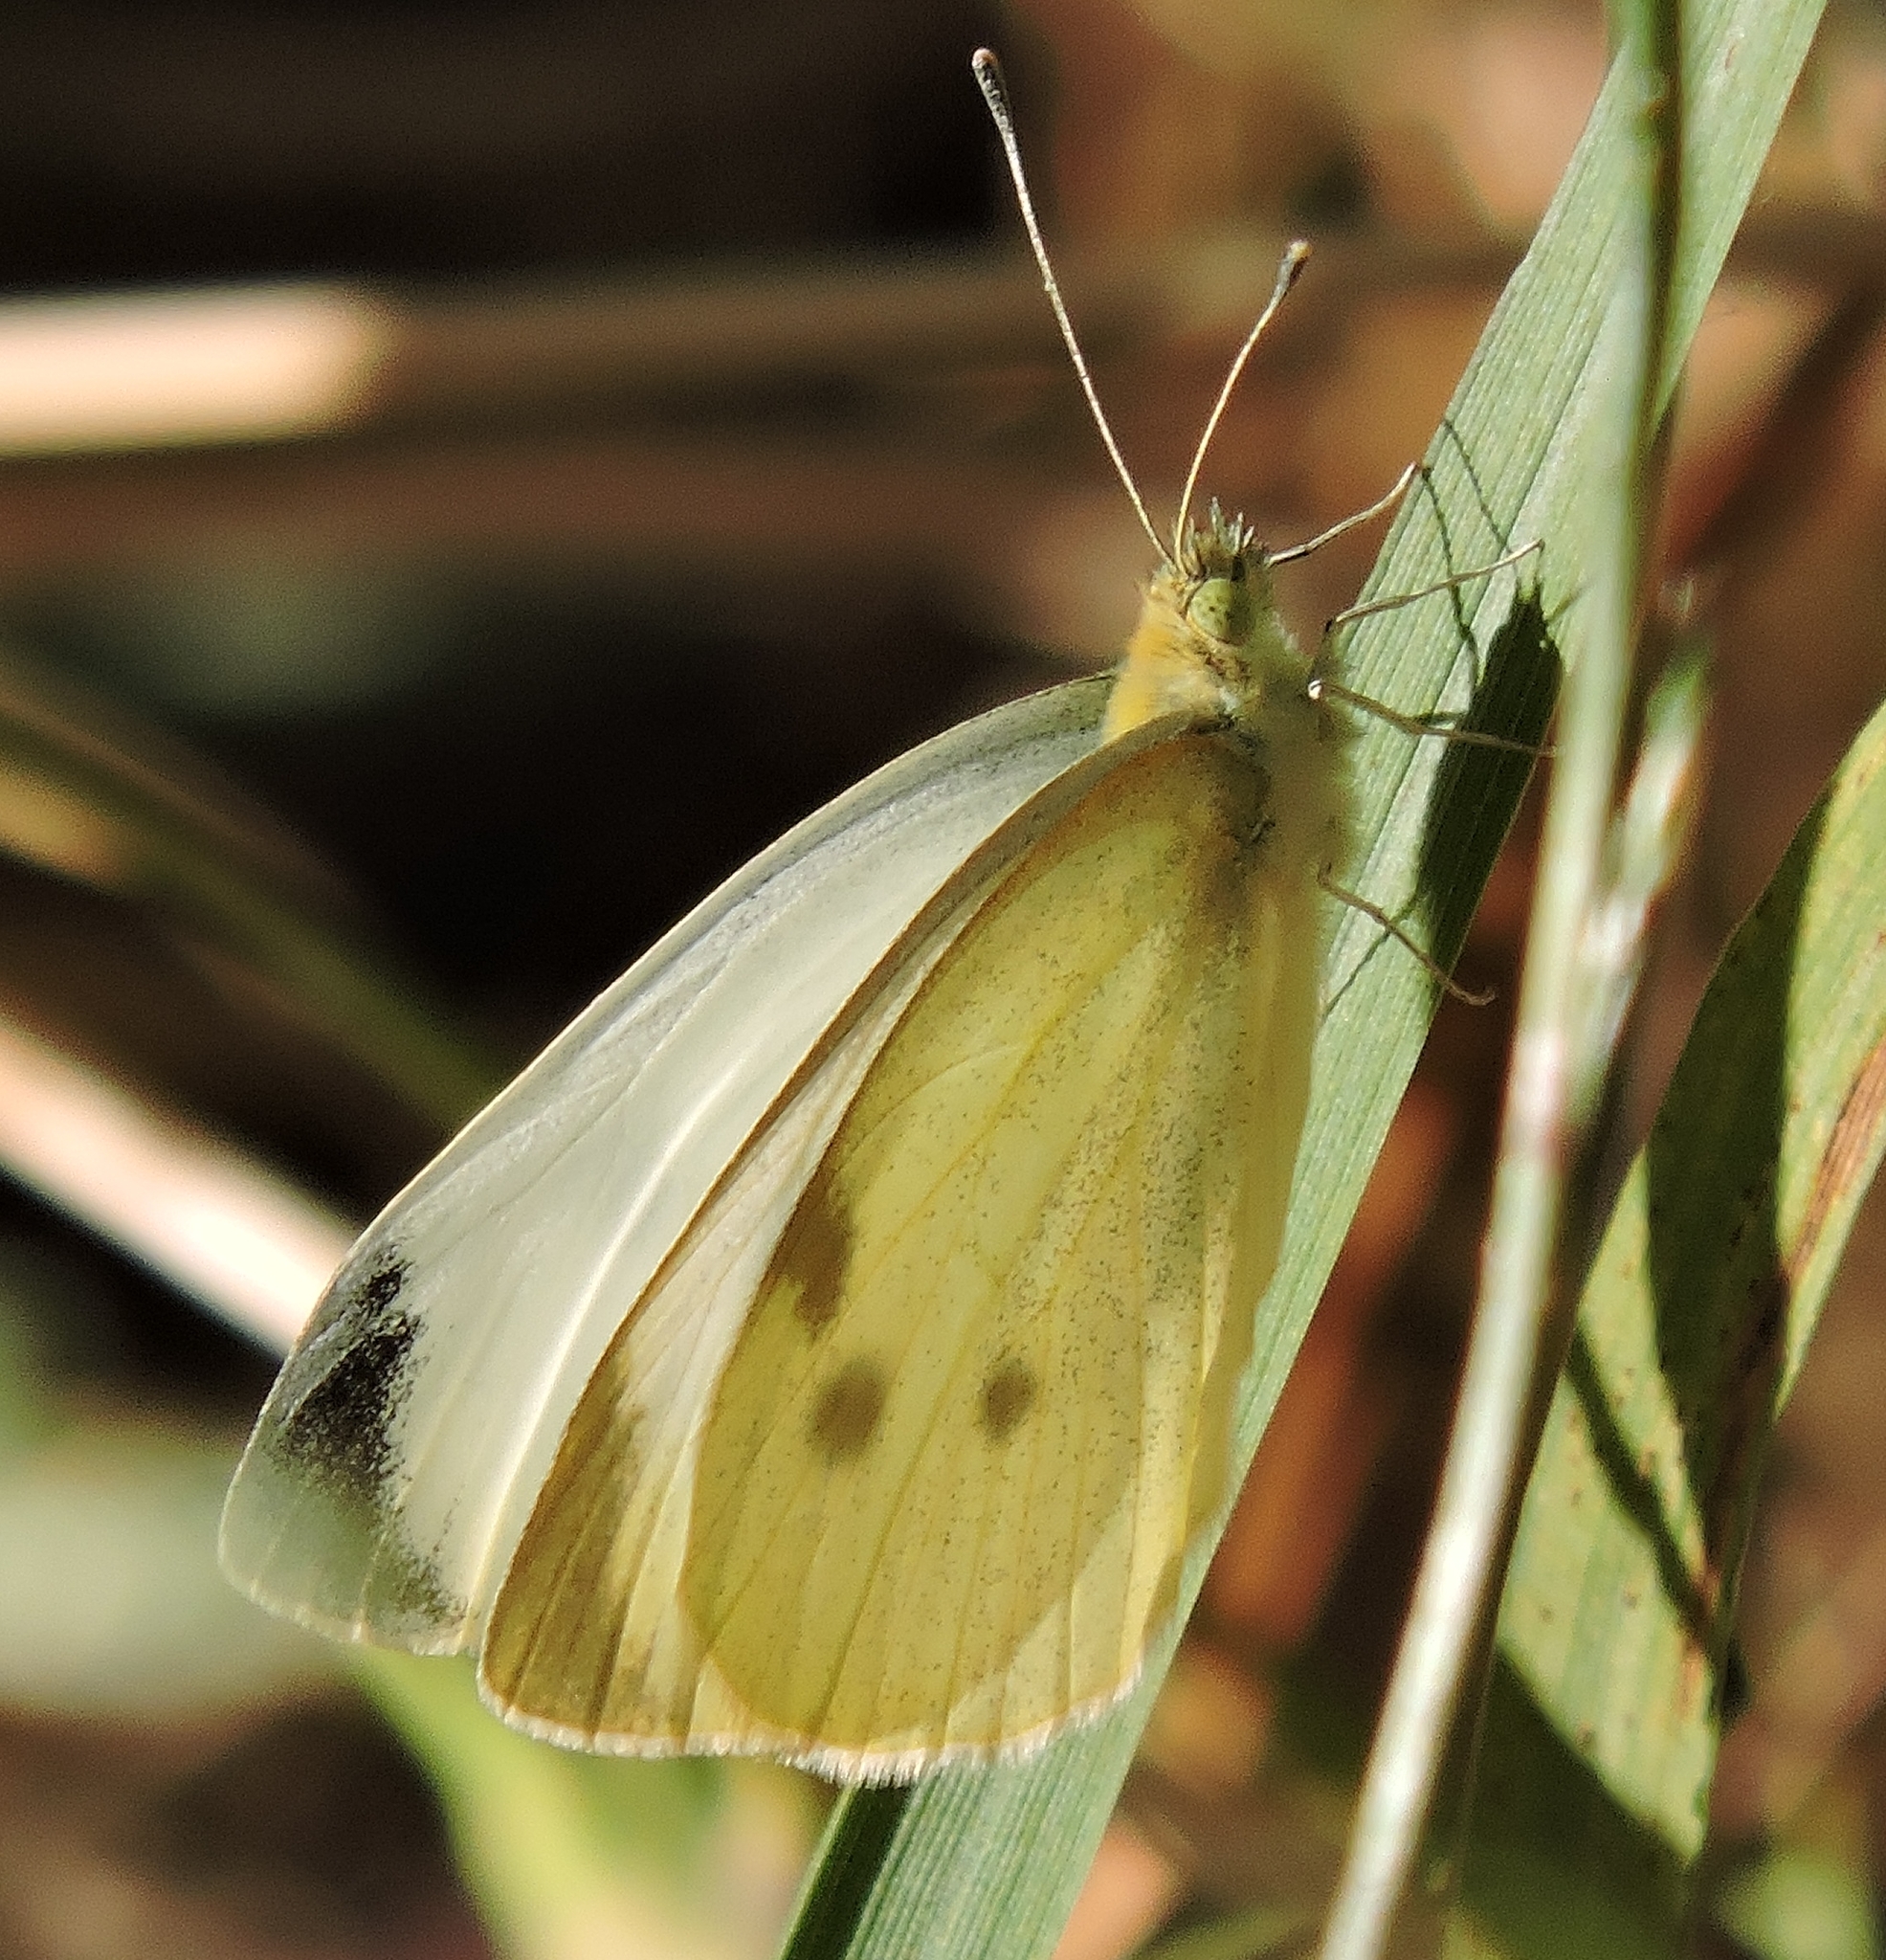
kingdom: Animalia
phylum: Arthropoda
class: Insecta
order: Lepidoptera
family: Pieridae
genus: Pieris
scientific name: Pieris rapae
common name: Small white
